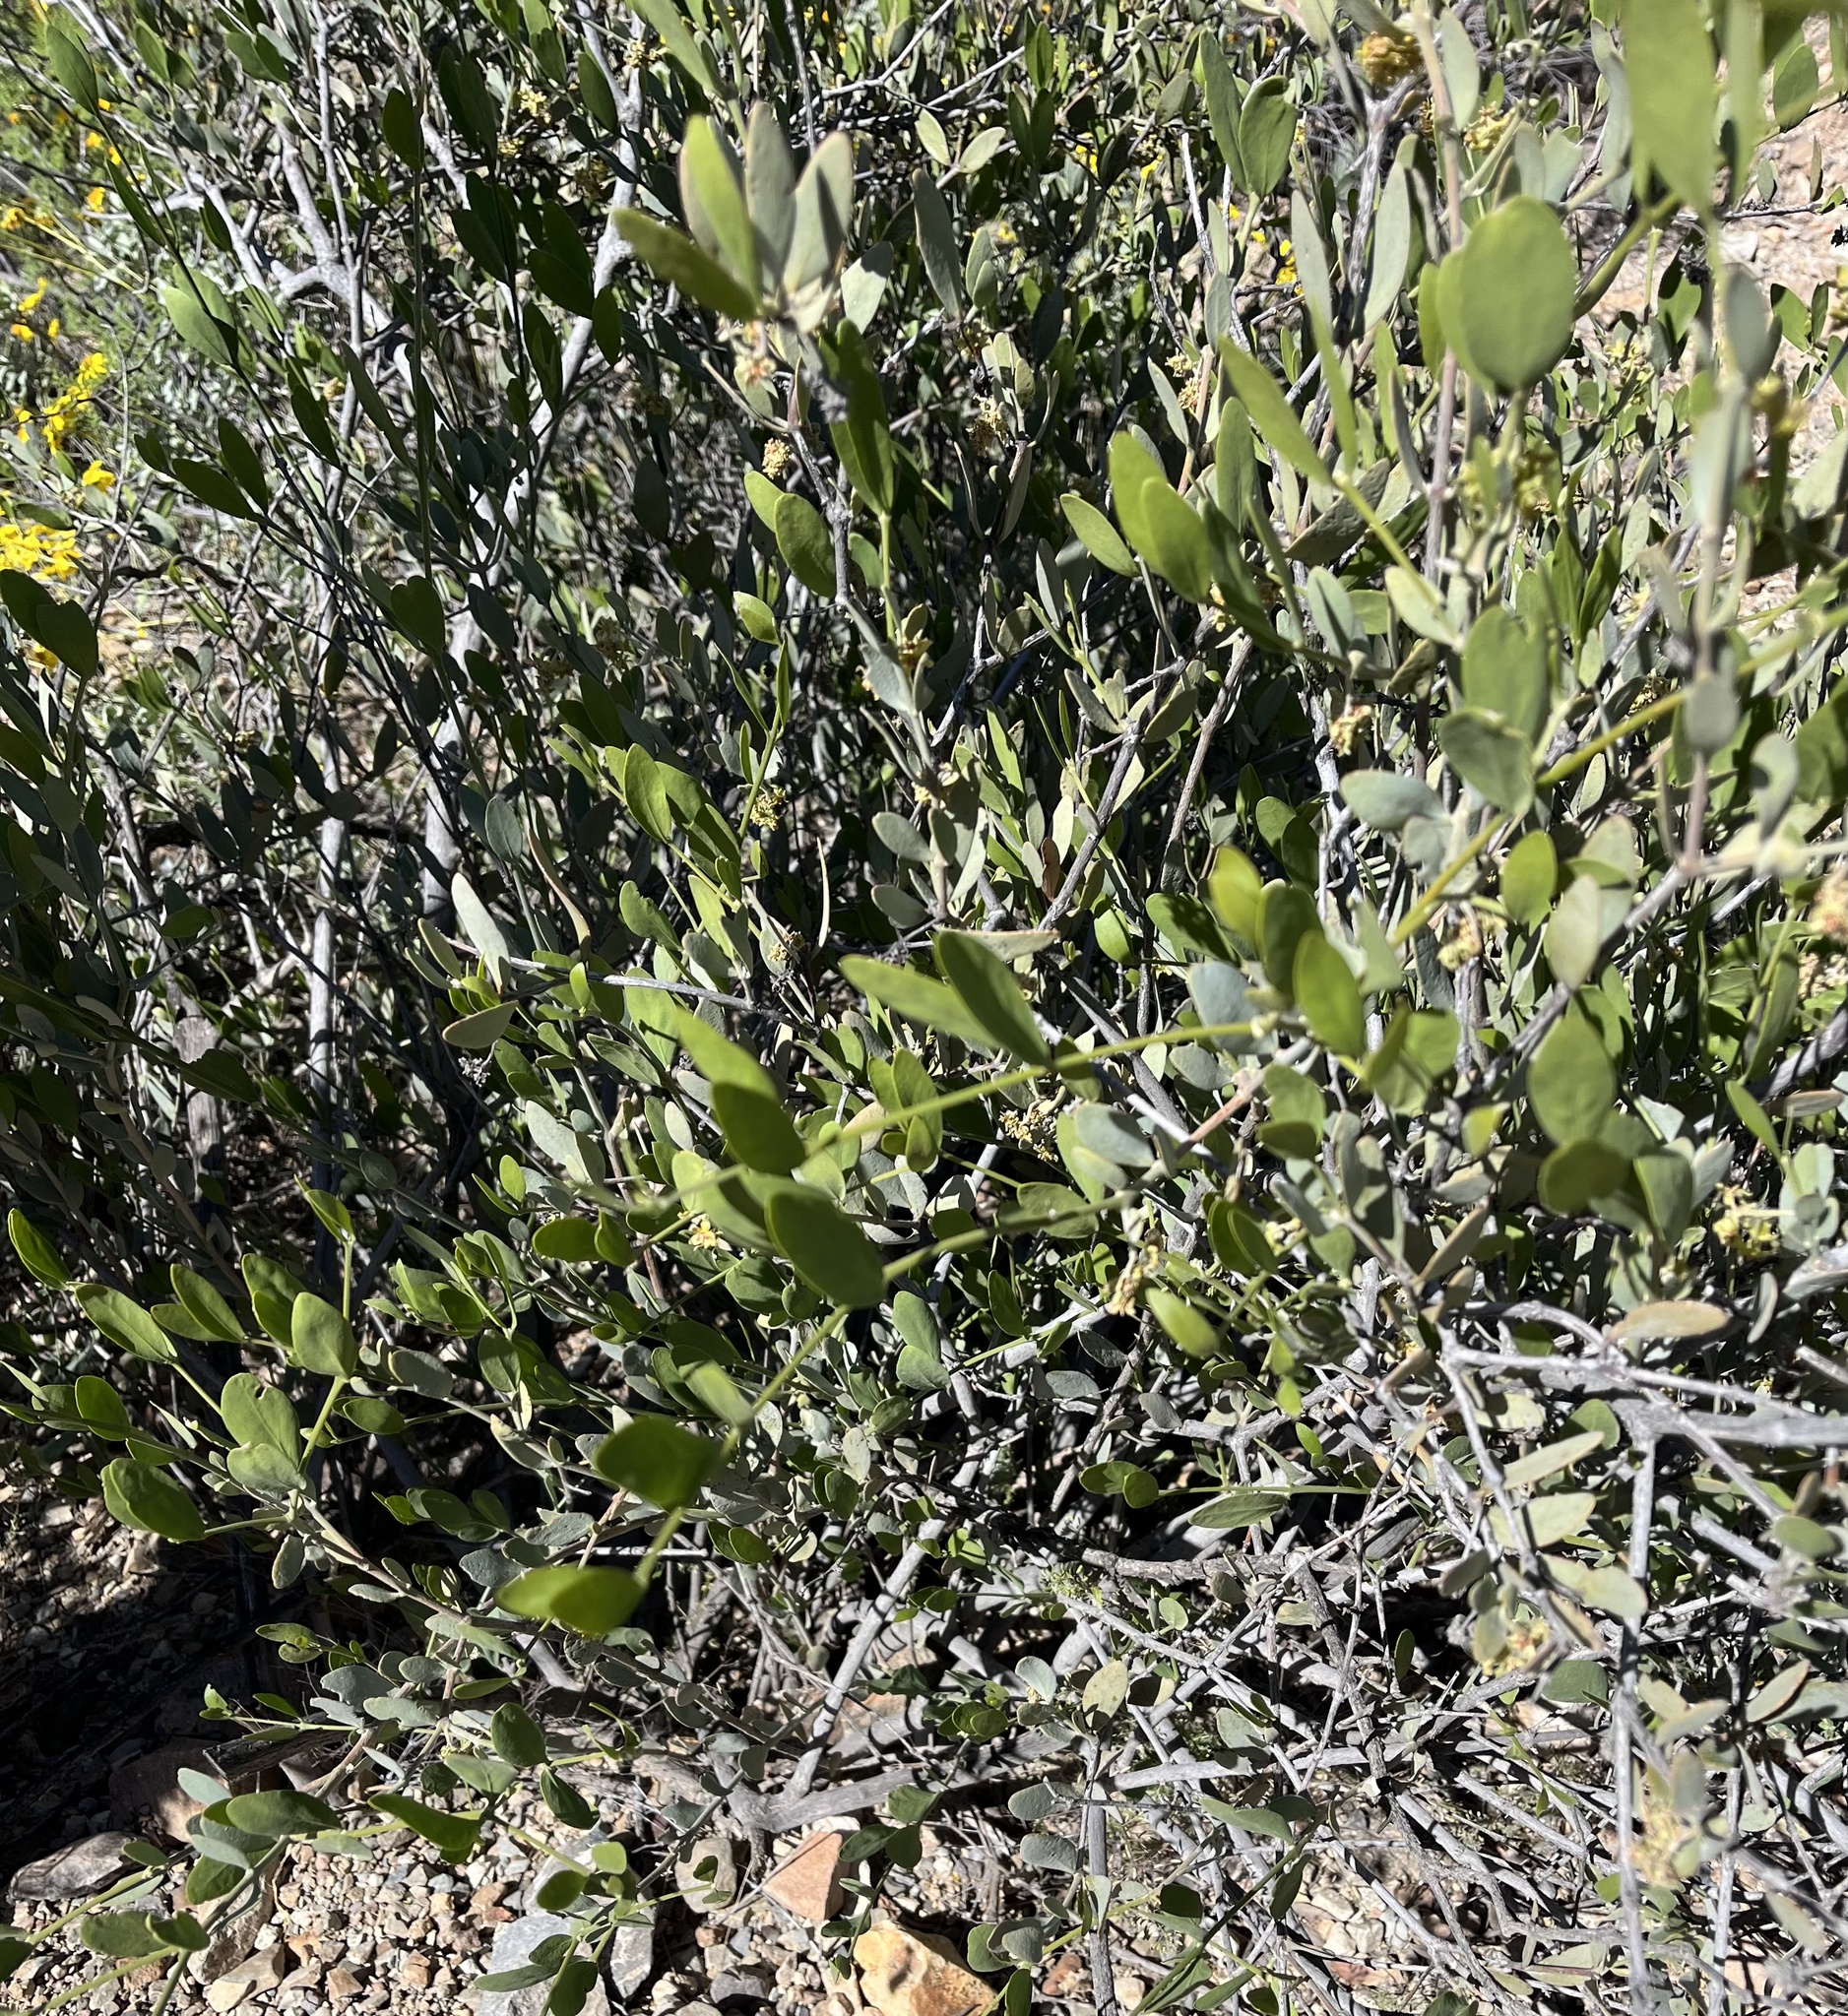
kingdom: Plantae
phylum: Tracheophyta
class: Magnoliopsida
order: Caryophyllales
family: Simmondsiaceae
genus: Simmondsia
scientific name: Simmondsia chinensis
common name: Jojoba
